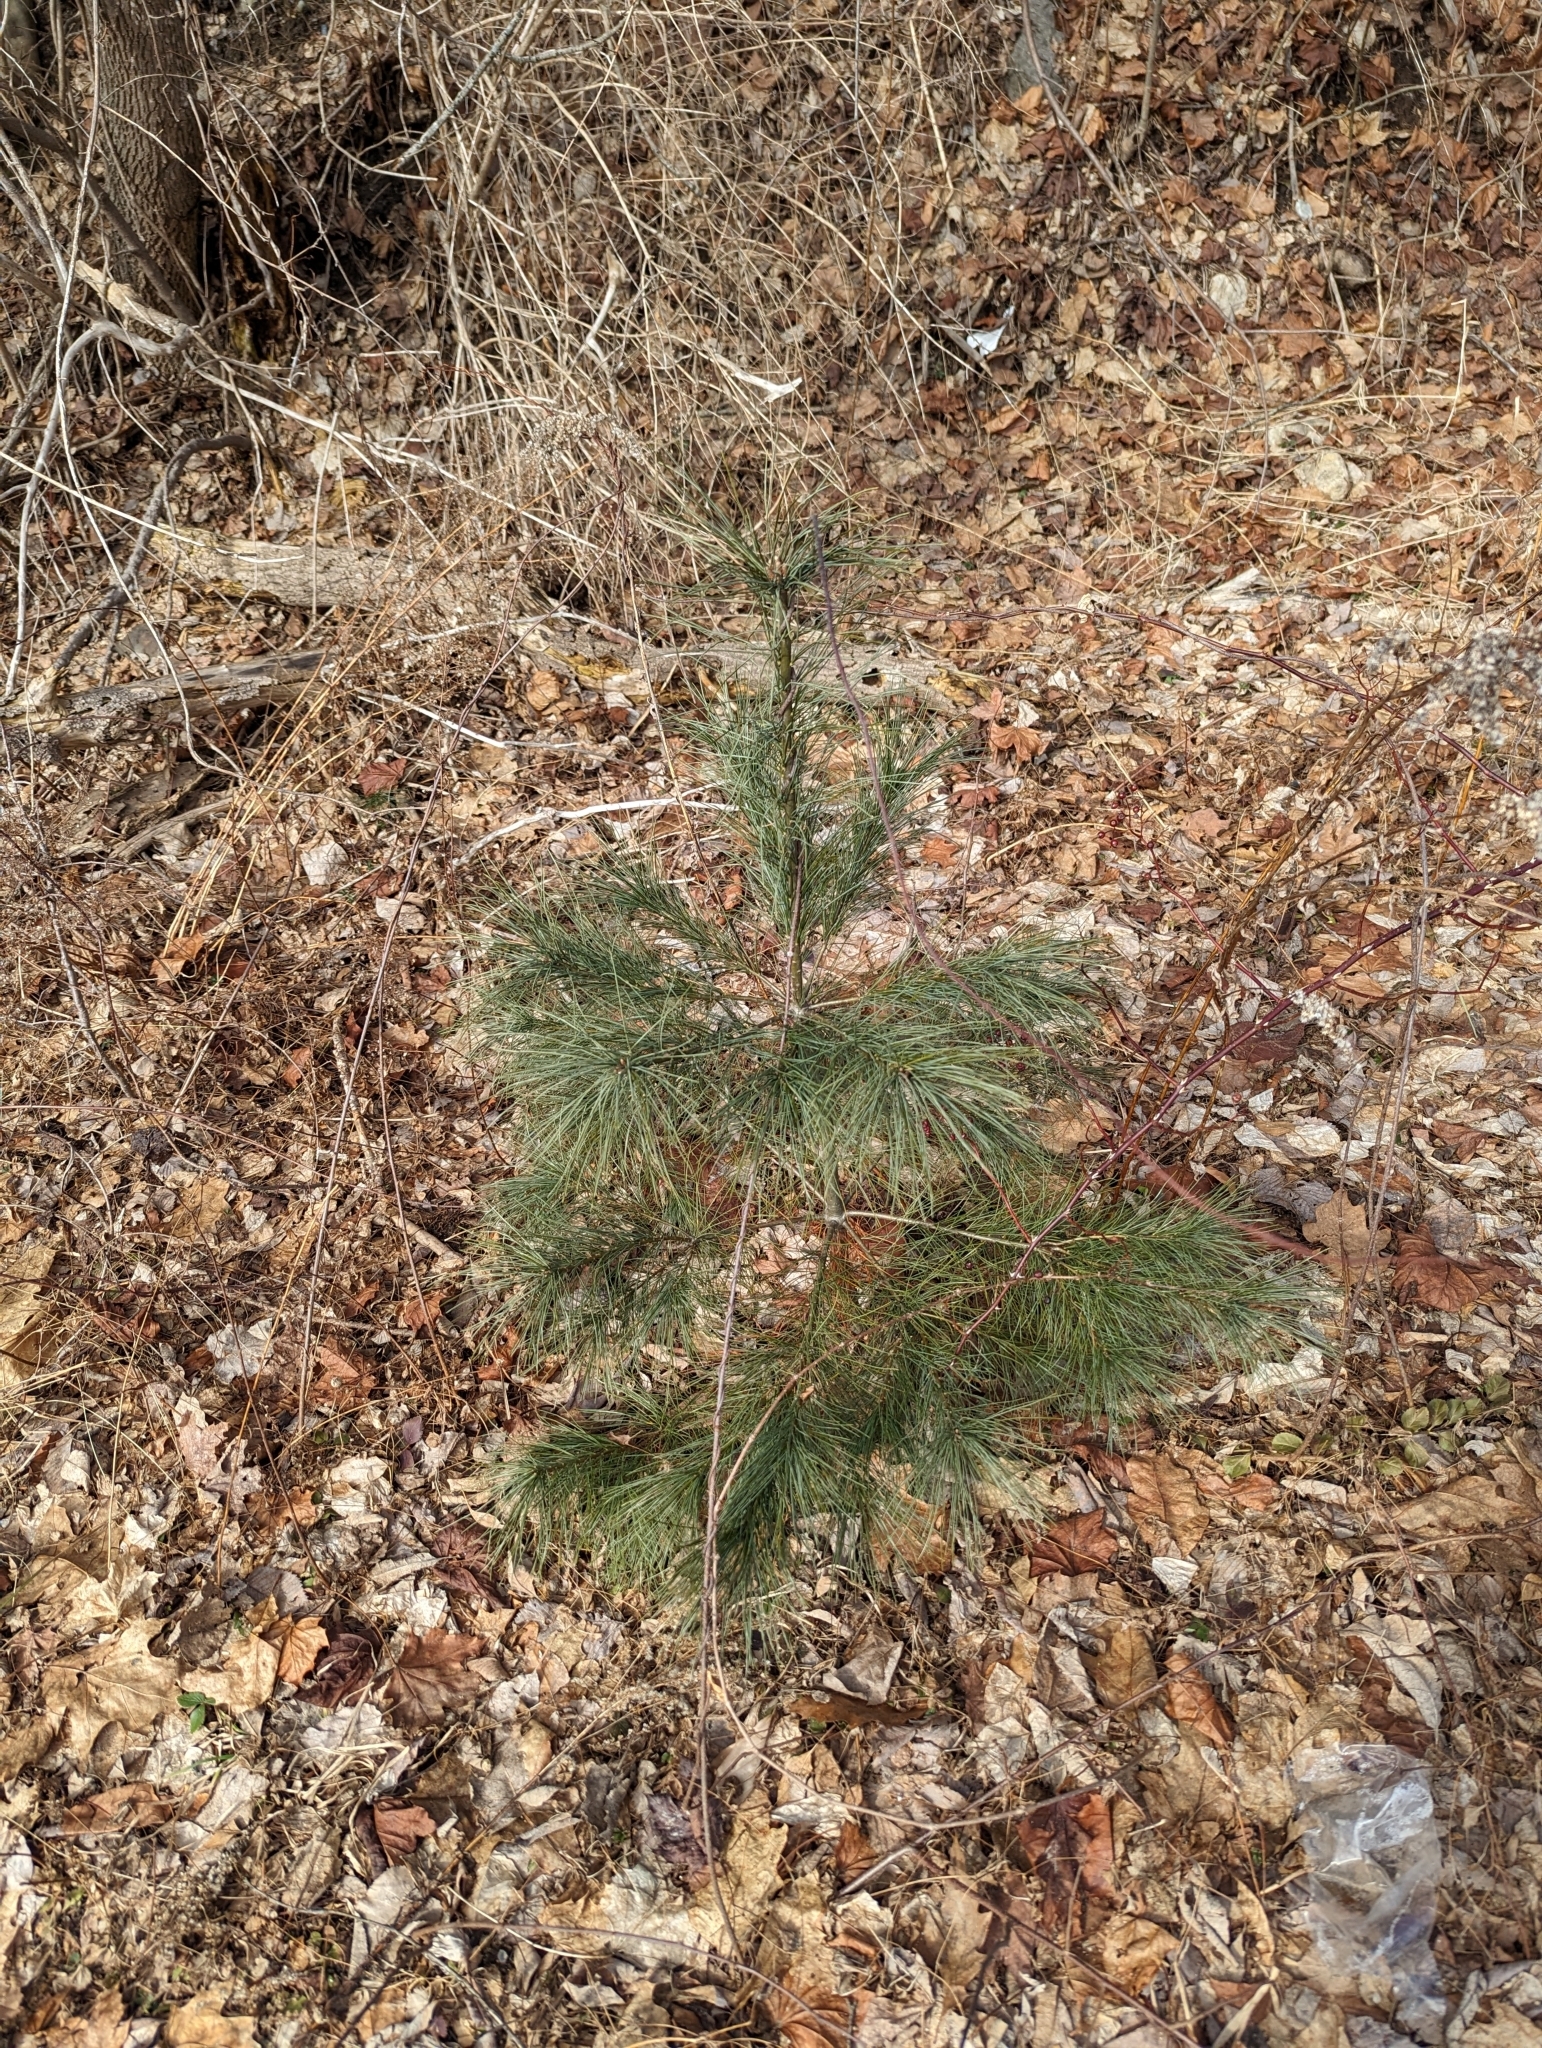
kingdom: Plantae
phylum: Tracheophyta
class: Pinopsida
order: Pinales
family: Pinaceae
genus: Pinus
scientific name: Pinus strobus
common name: Weymouth pine
